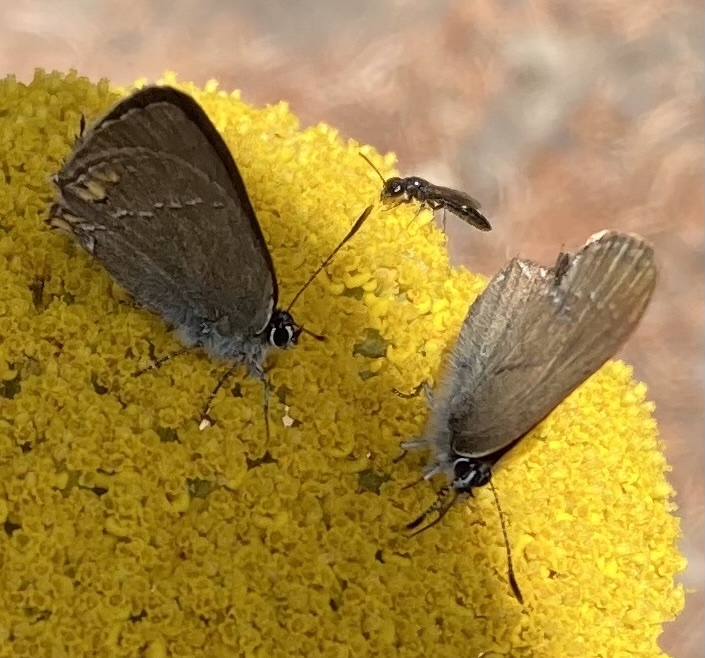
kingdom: Animalia
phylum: Arthropoda
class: Insecta
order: Lepidoptera
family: Lycaenidae
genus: Strymon
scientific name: Strymon acaciae
